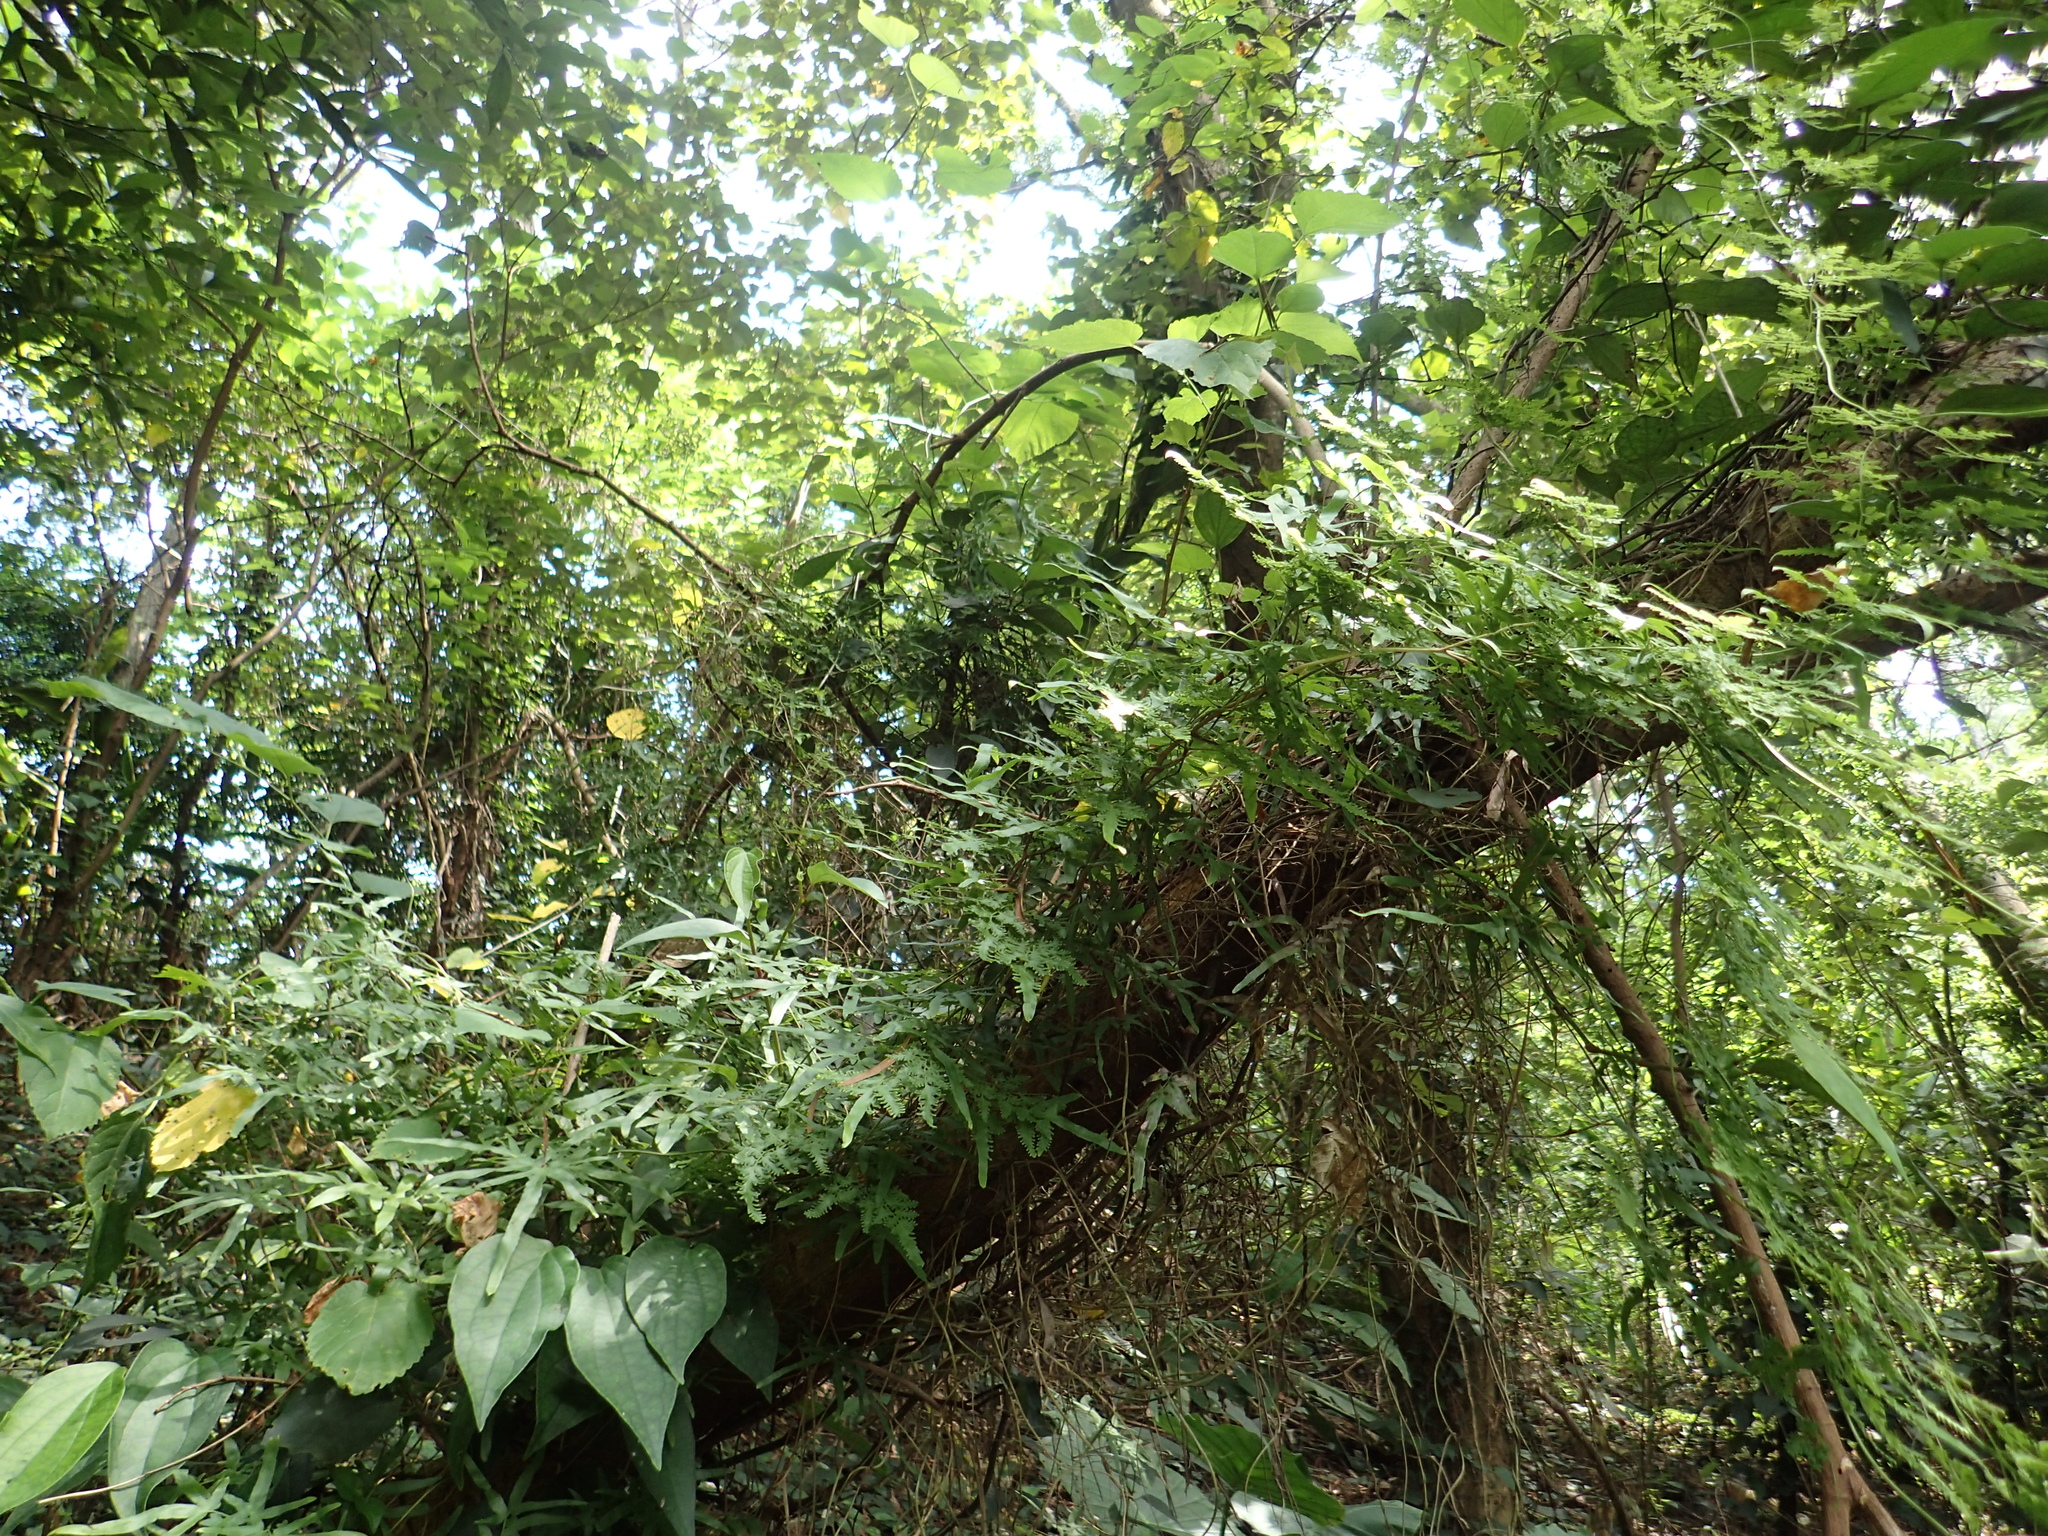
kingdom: Plantae
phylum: Tracheophyta
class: Polypodiopsida
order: Schizaeales
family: Lygodiaceae
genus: Lygodium
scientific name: Lygodium japonicum
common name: Japanese climbing fern
